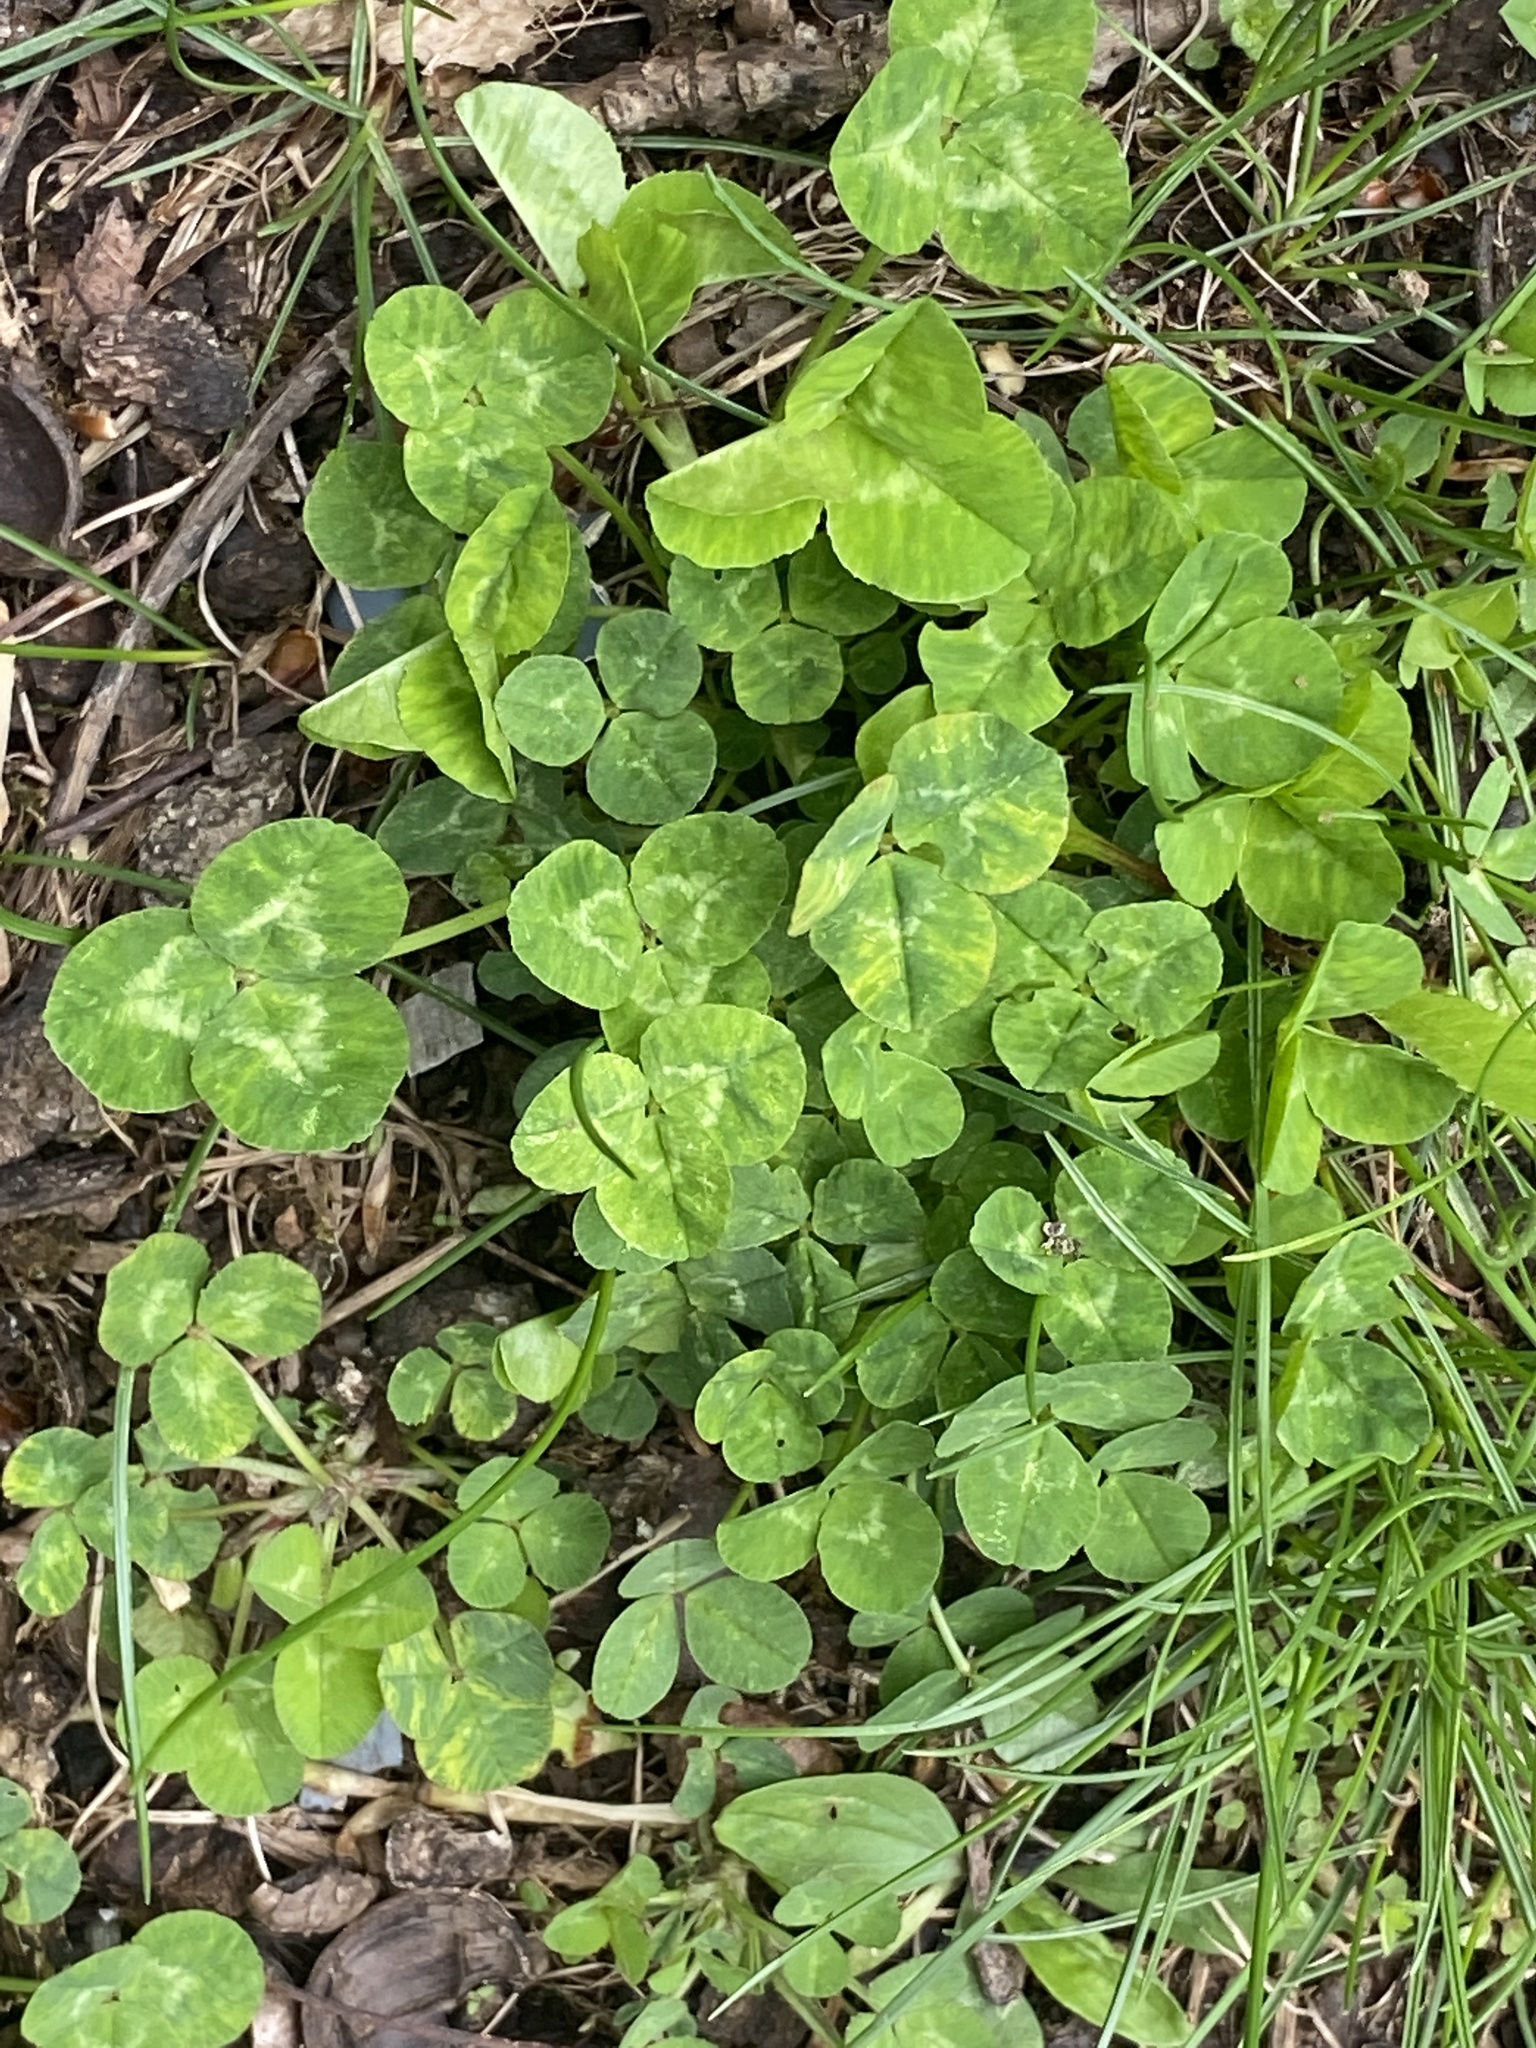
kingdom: Plantae
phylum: Tracheophyta
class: Magnoliopsida
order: Fabales
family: Fabaceae
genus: Trifolium
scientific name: Trifolium repens
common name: White clover
